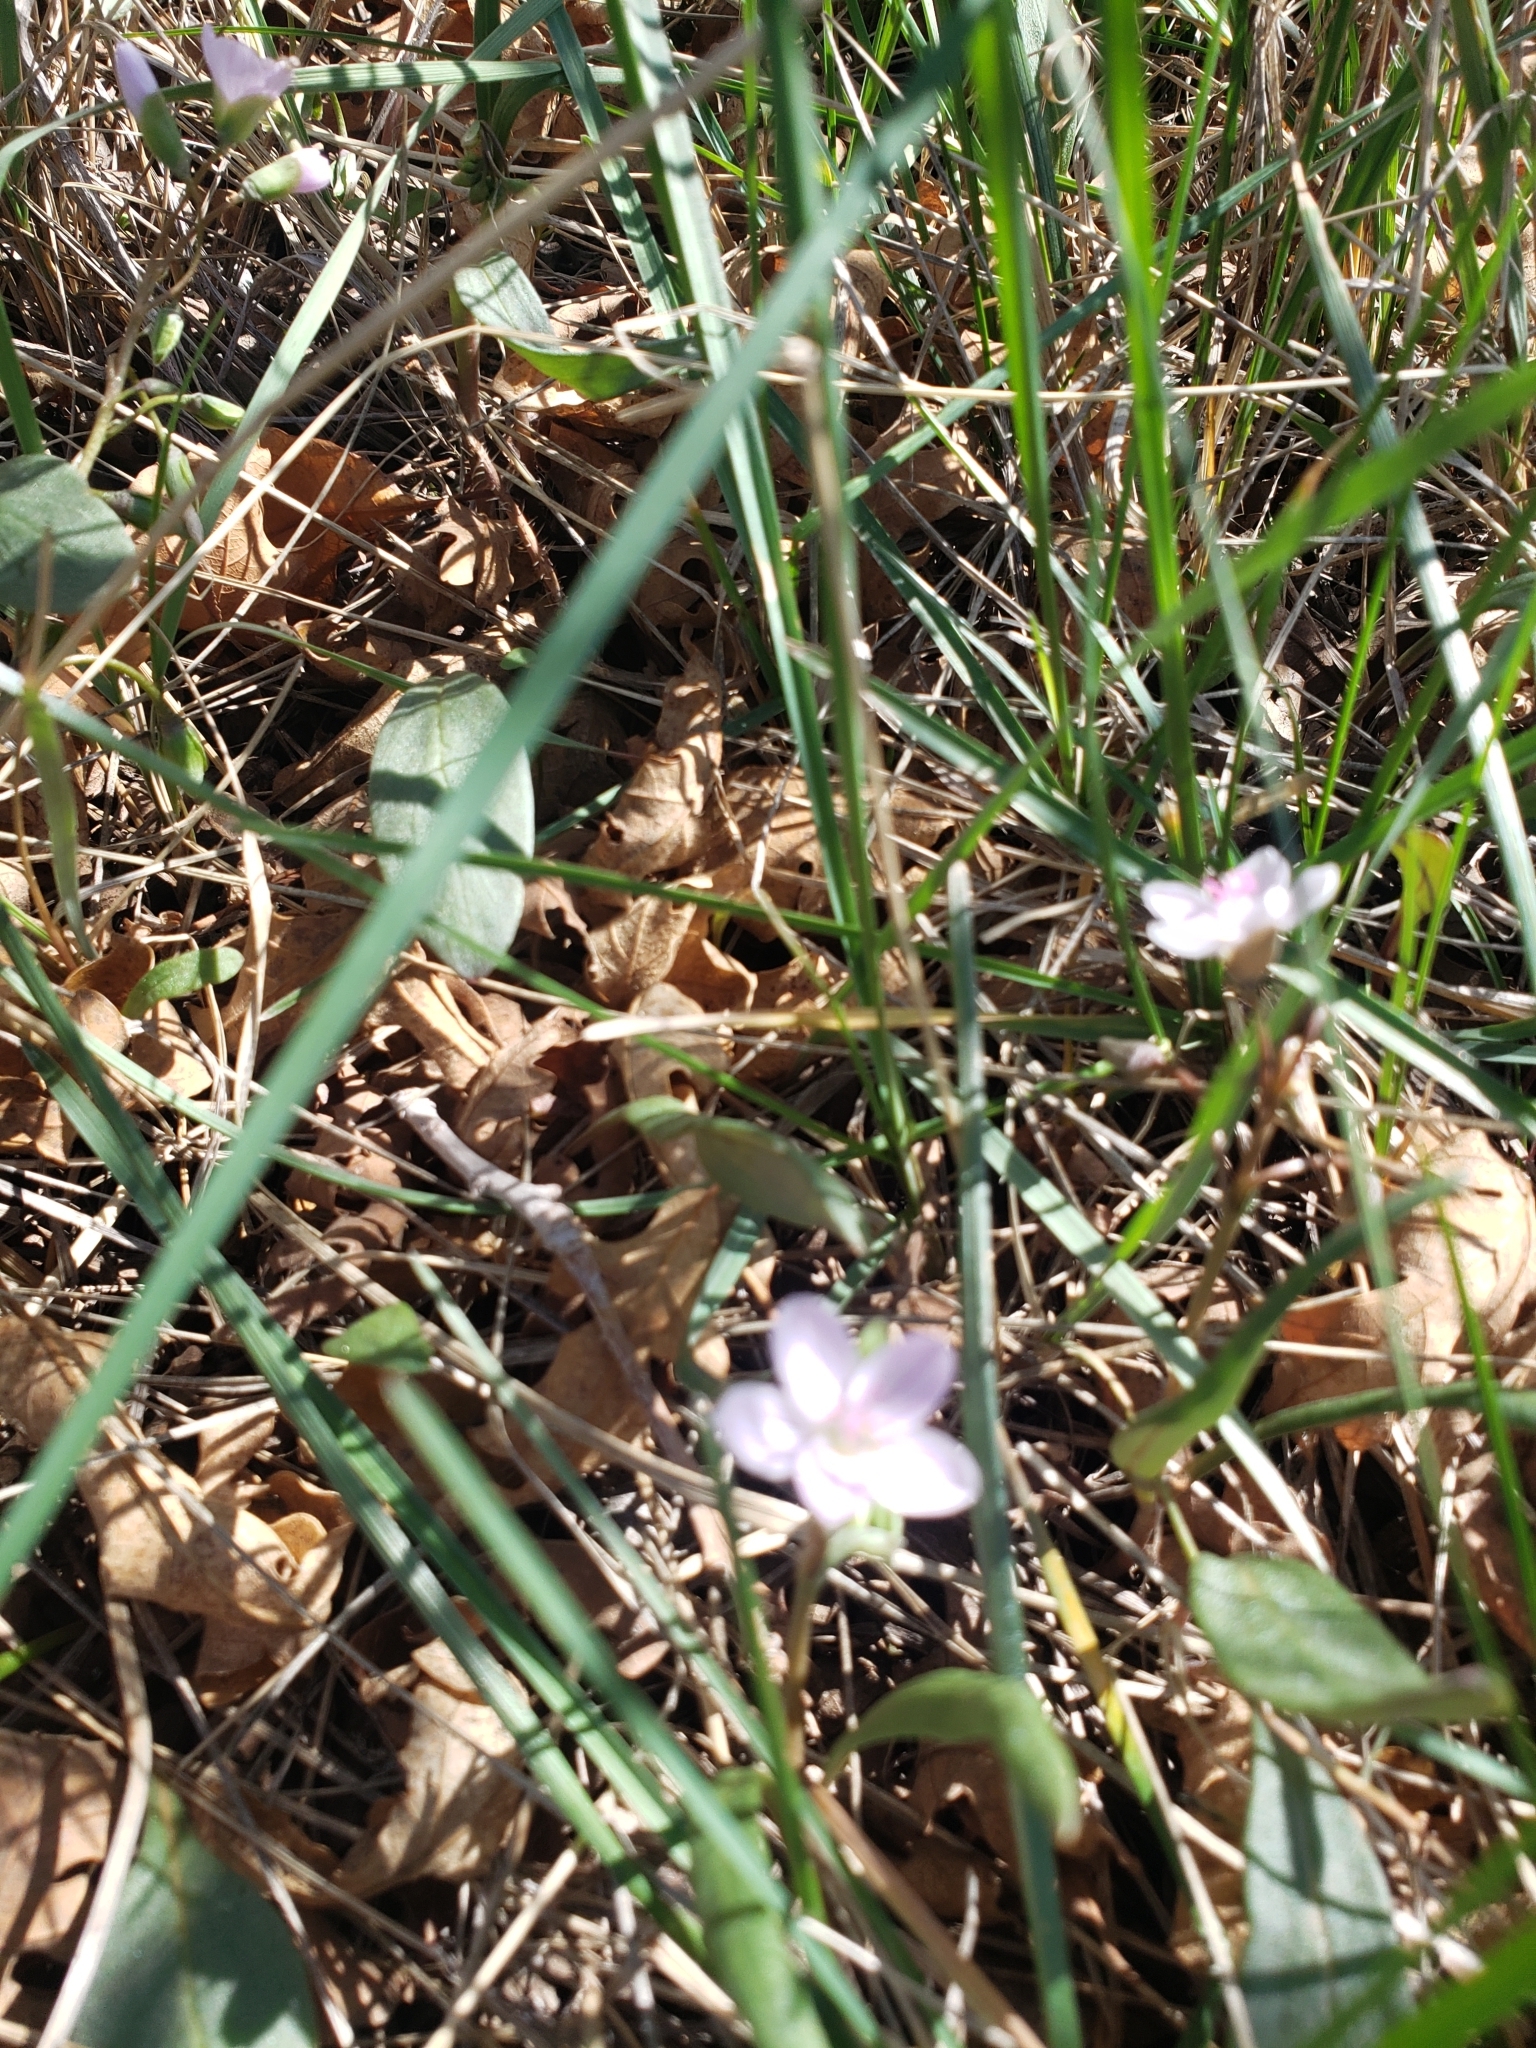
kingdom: Plantae
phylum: Tracheophyta
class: Magnoliopsida
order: Caryophyllales
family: Montiaceae
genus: Claytonia
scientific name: Claytonia rosea
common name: Rocky mountain spring-beauty
